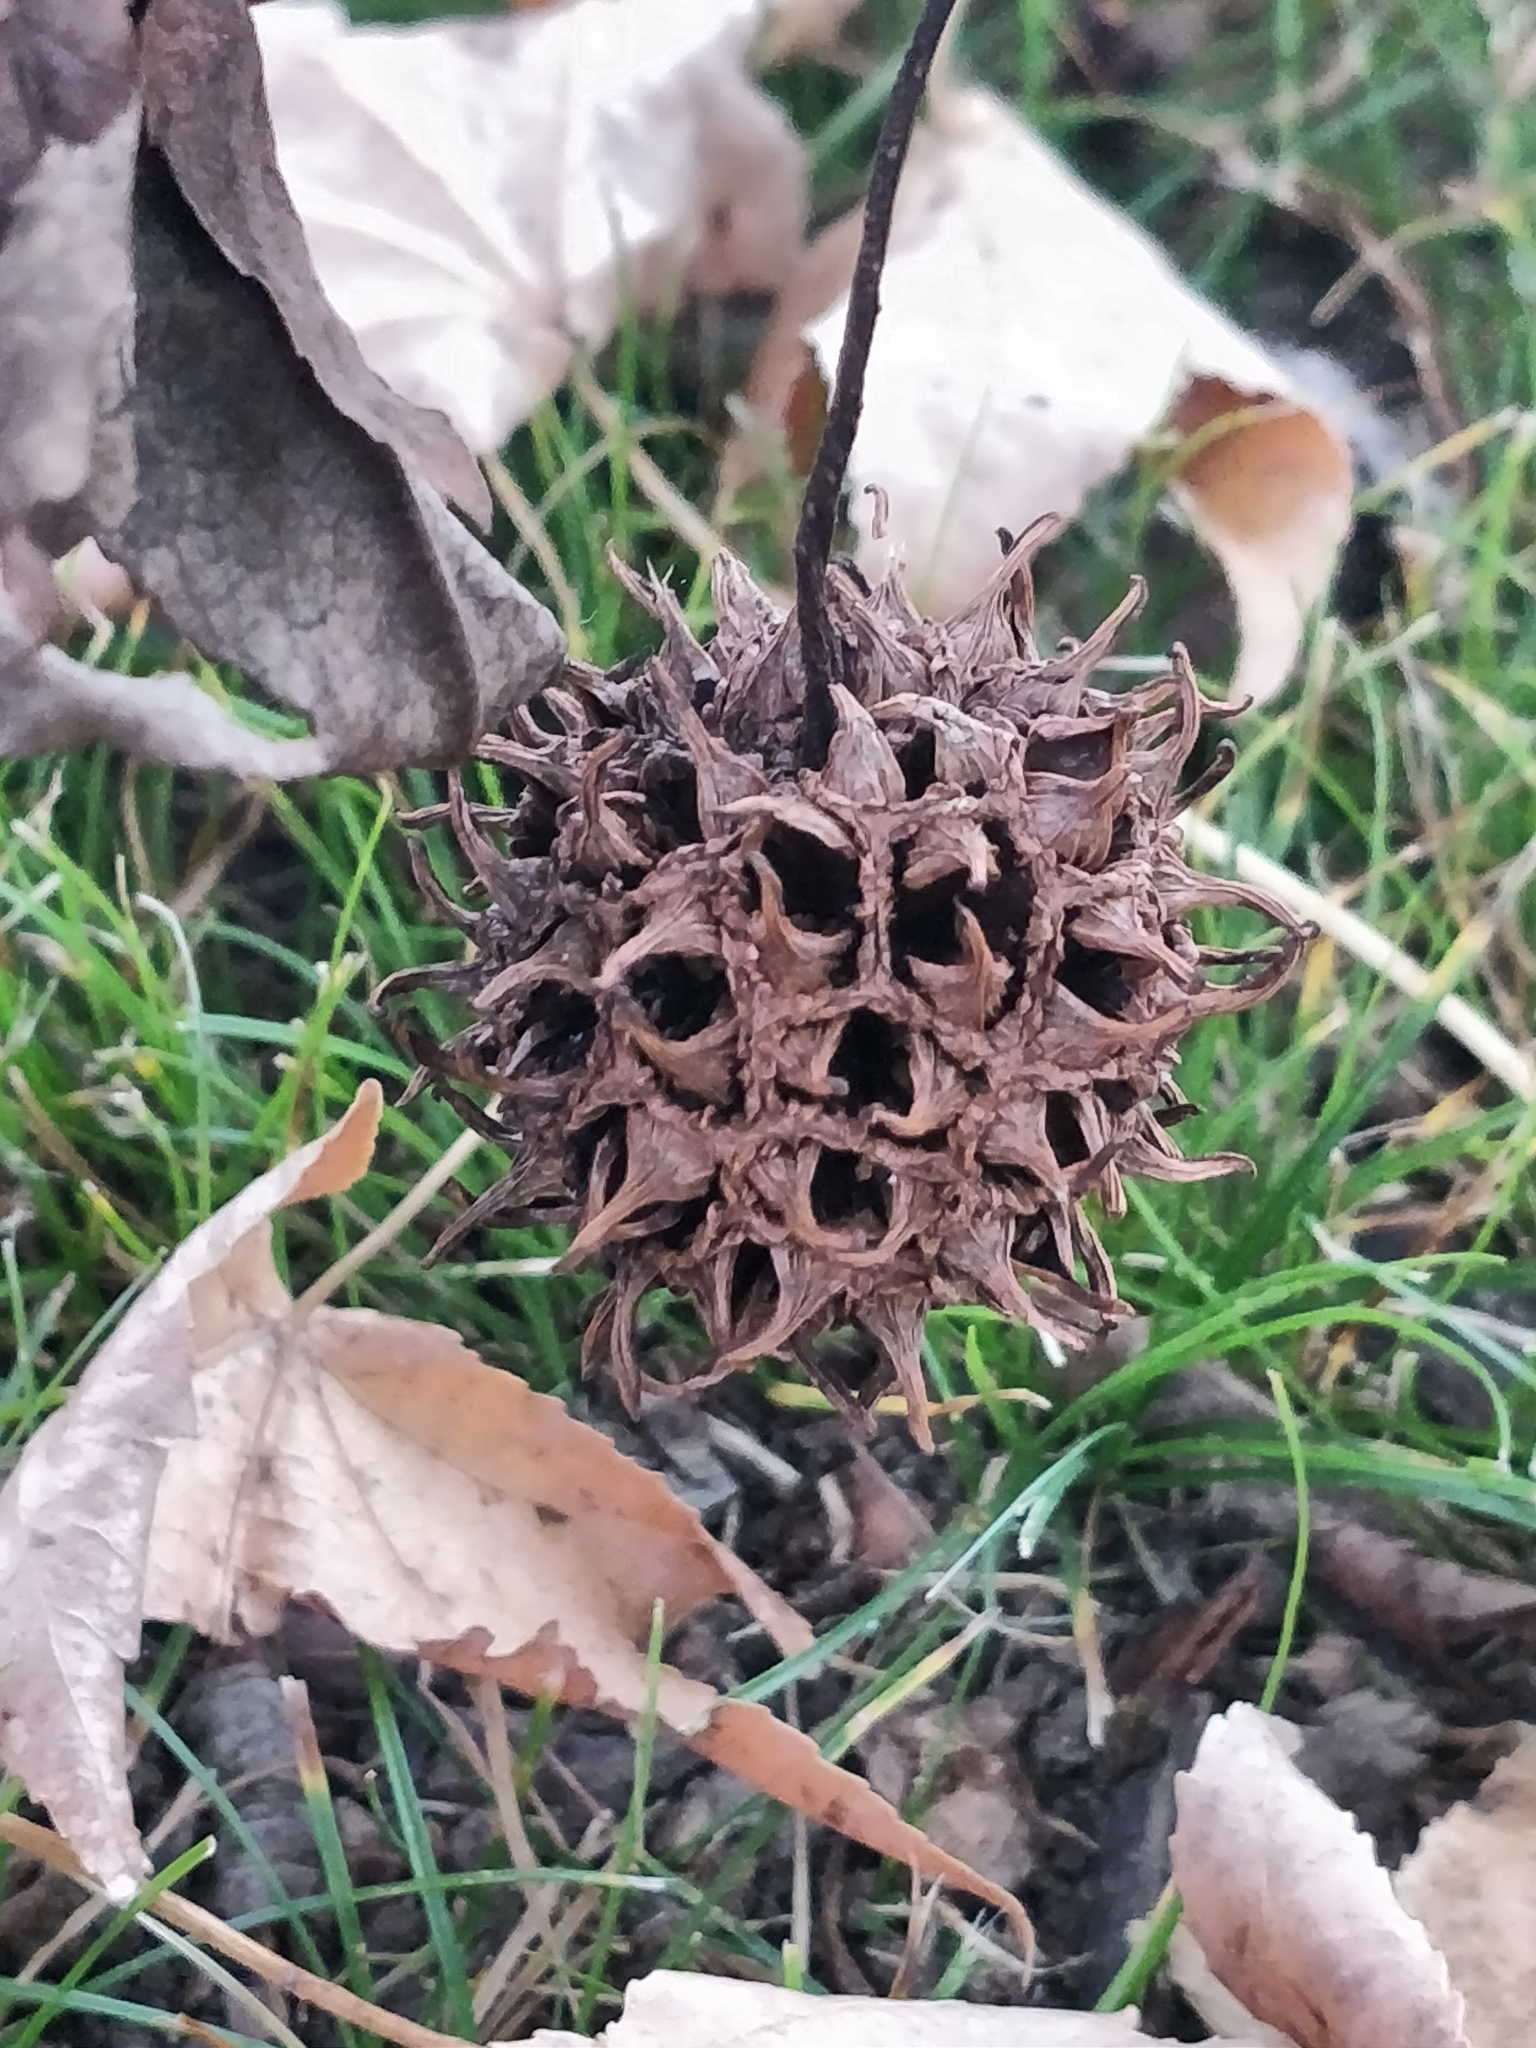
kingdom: Plantae
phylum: Tracheophyta
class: Magnoliopsida
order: Saxifragales
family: Altingiaceae
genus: Liquidambar
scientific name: Liquidambar styraciflua
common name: Sweet gum
